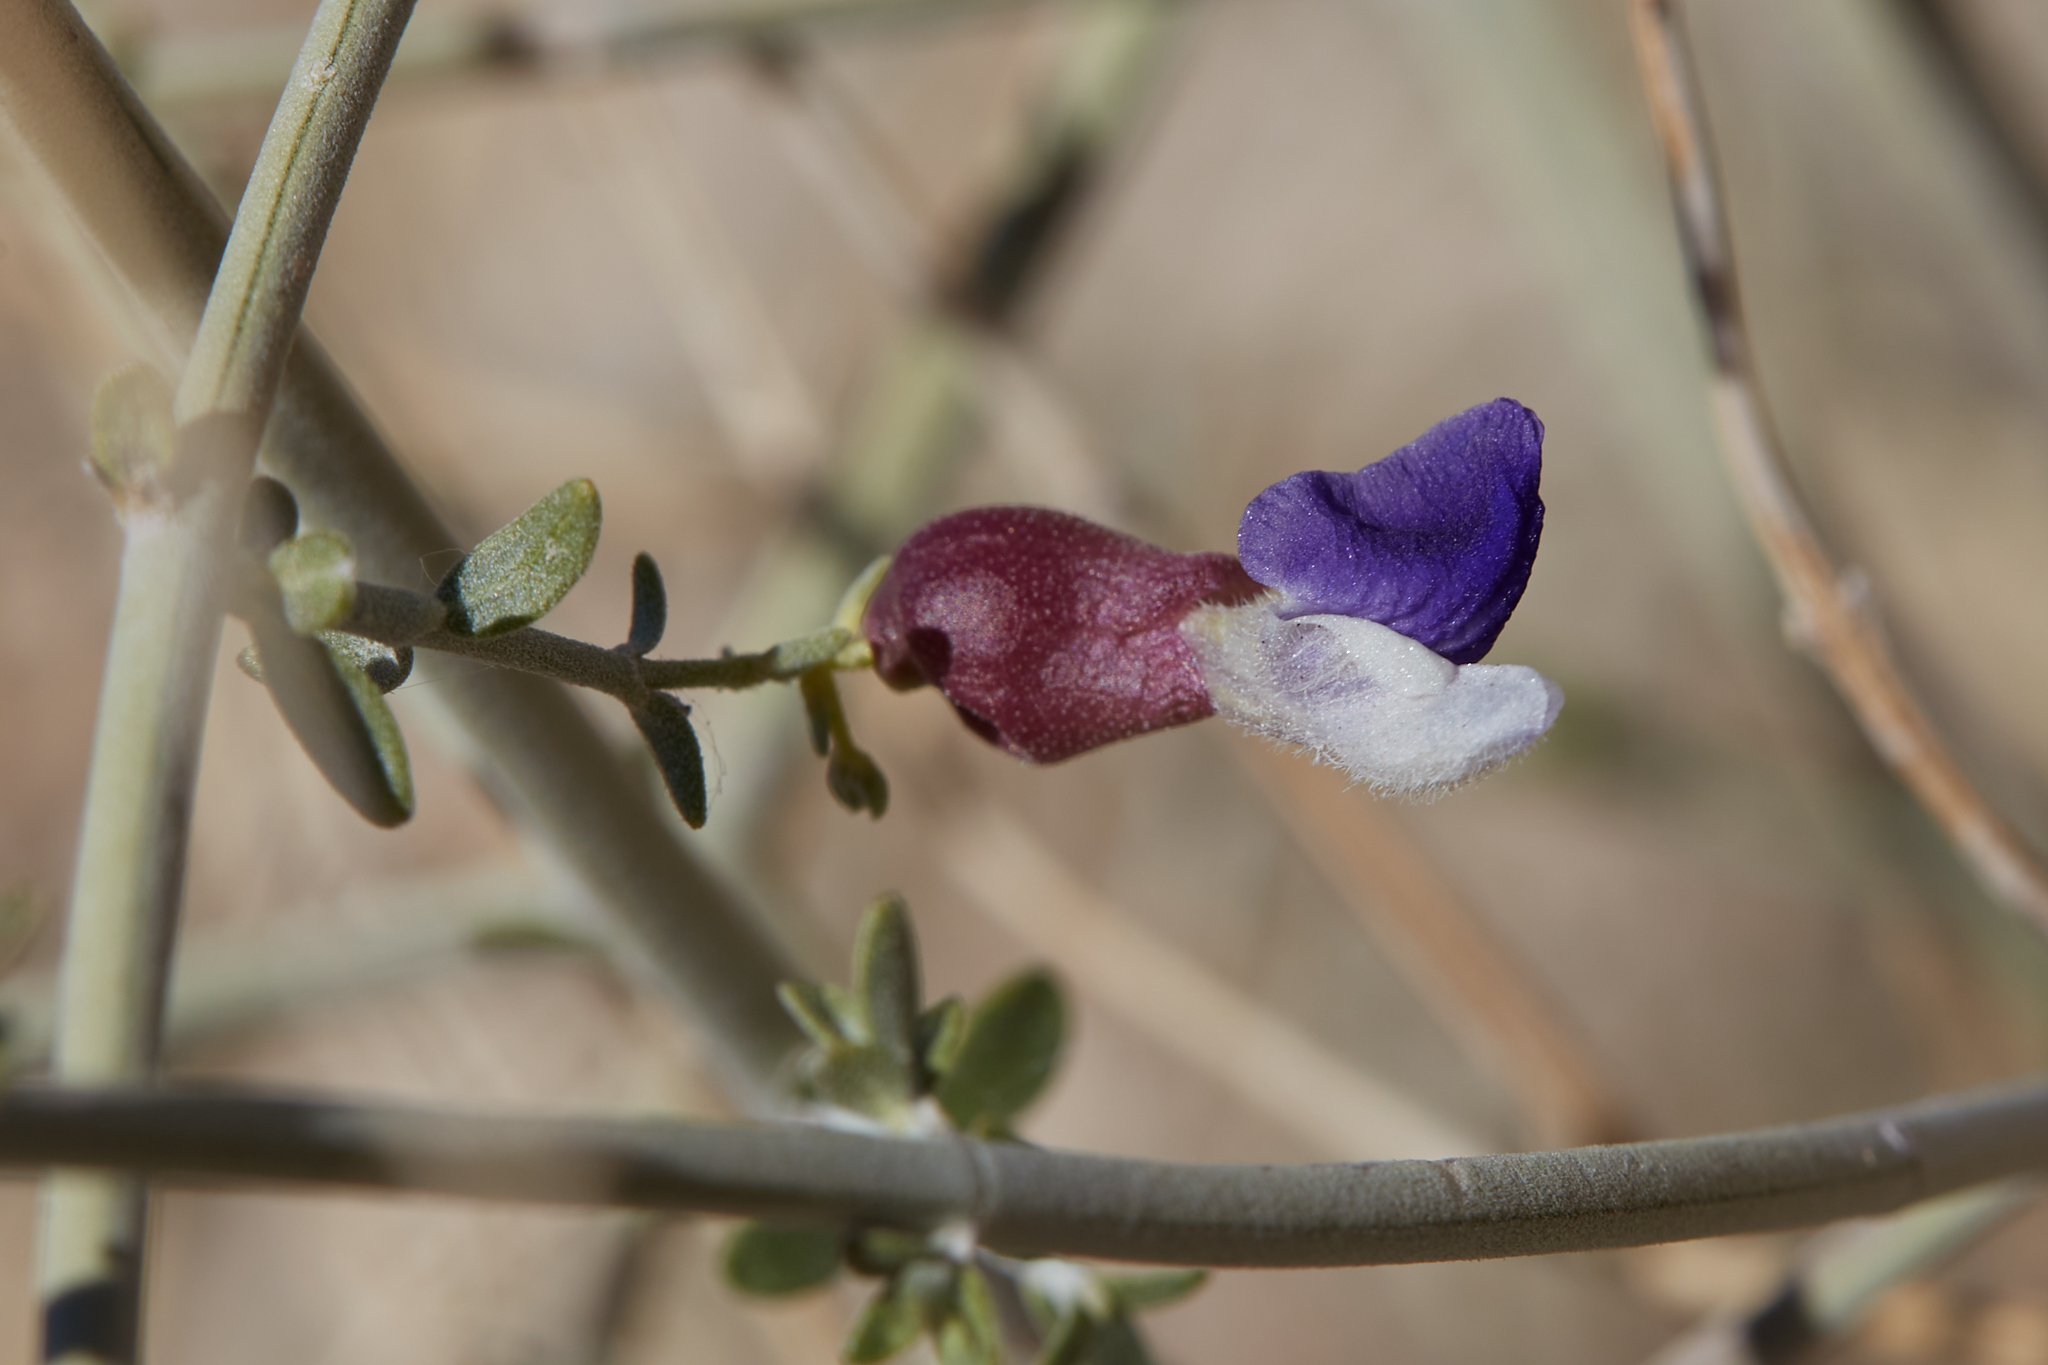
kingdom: Plantae
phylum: Tracheophyta
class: Magnoliopsida
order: Lamiales
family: Lamiaceae
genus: Scutellaria
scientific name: Scutellaria mexicana
